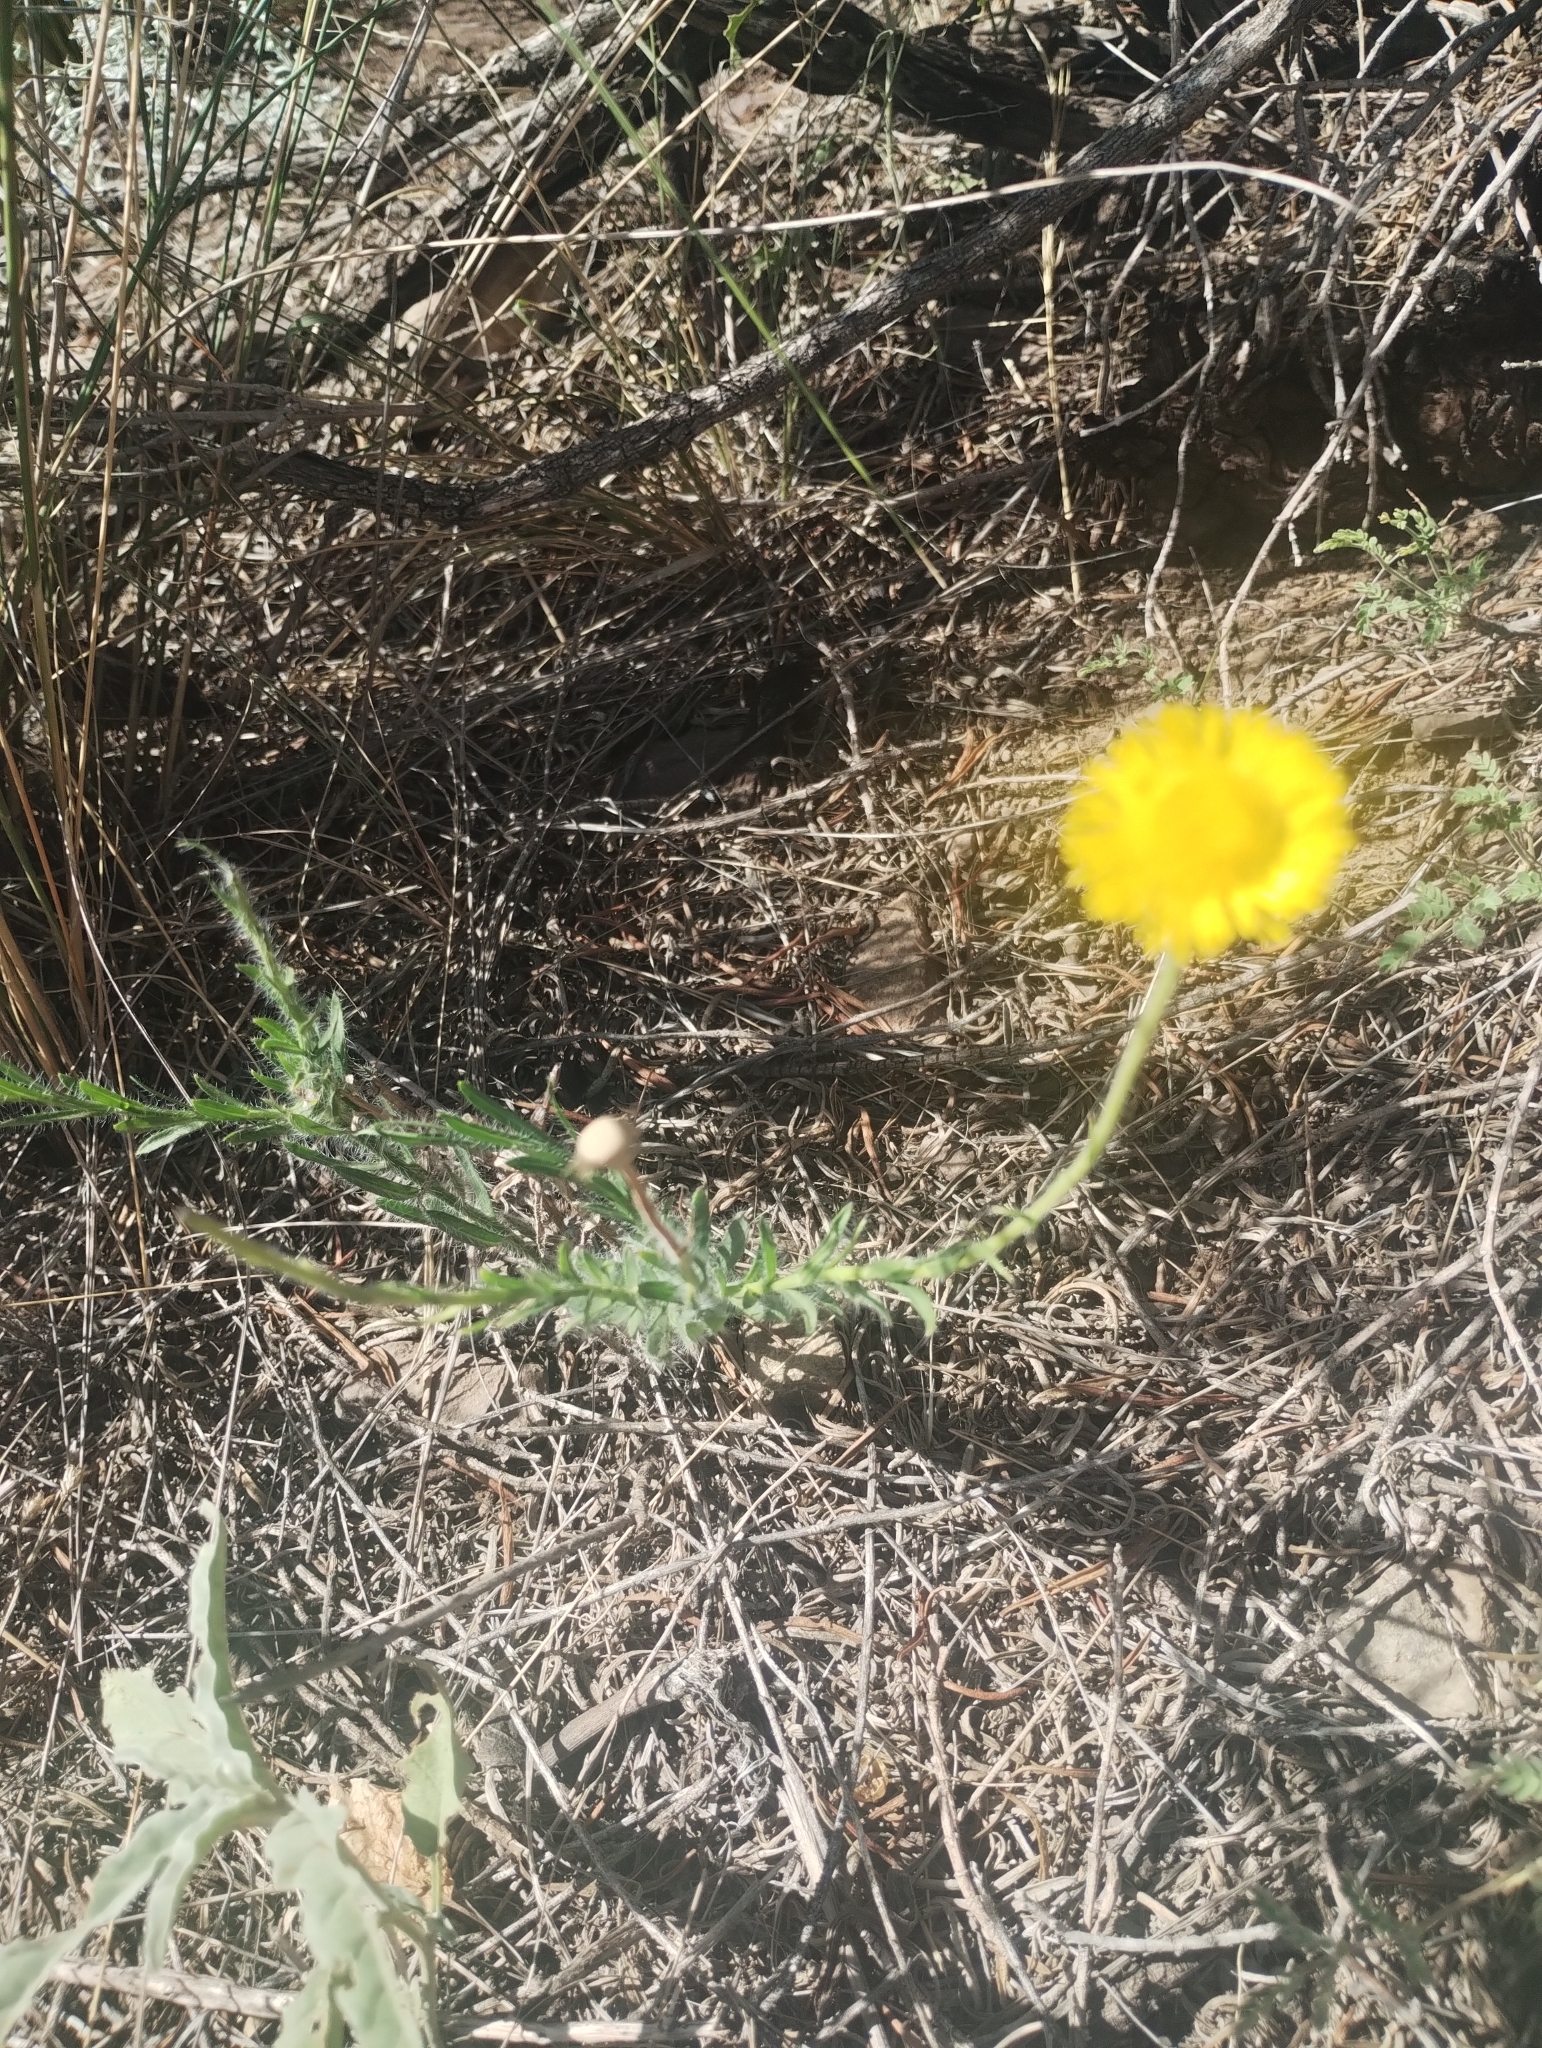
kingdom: Plantae
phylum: Tracheophyta
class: Magnoliopsida
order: Asterales
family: Asteraceae
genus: Hysterionica
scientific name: Hysterionica jasionoides
